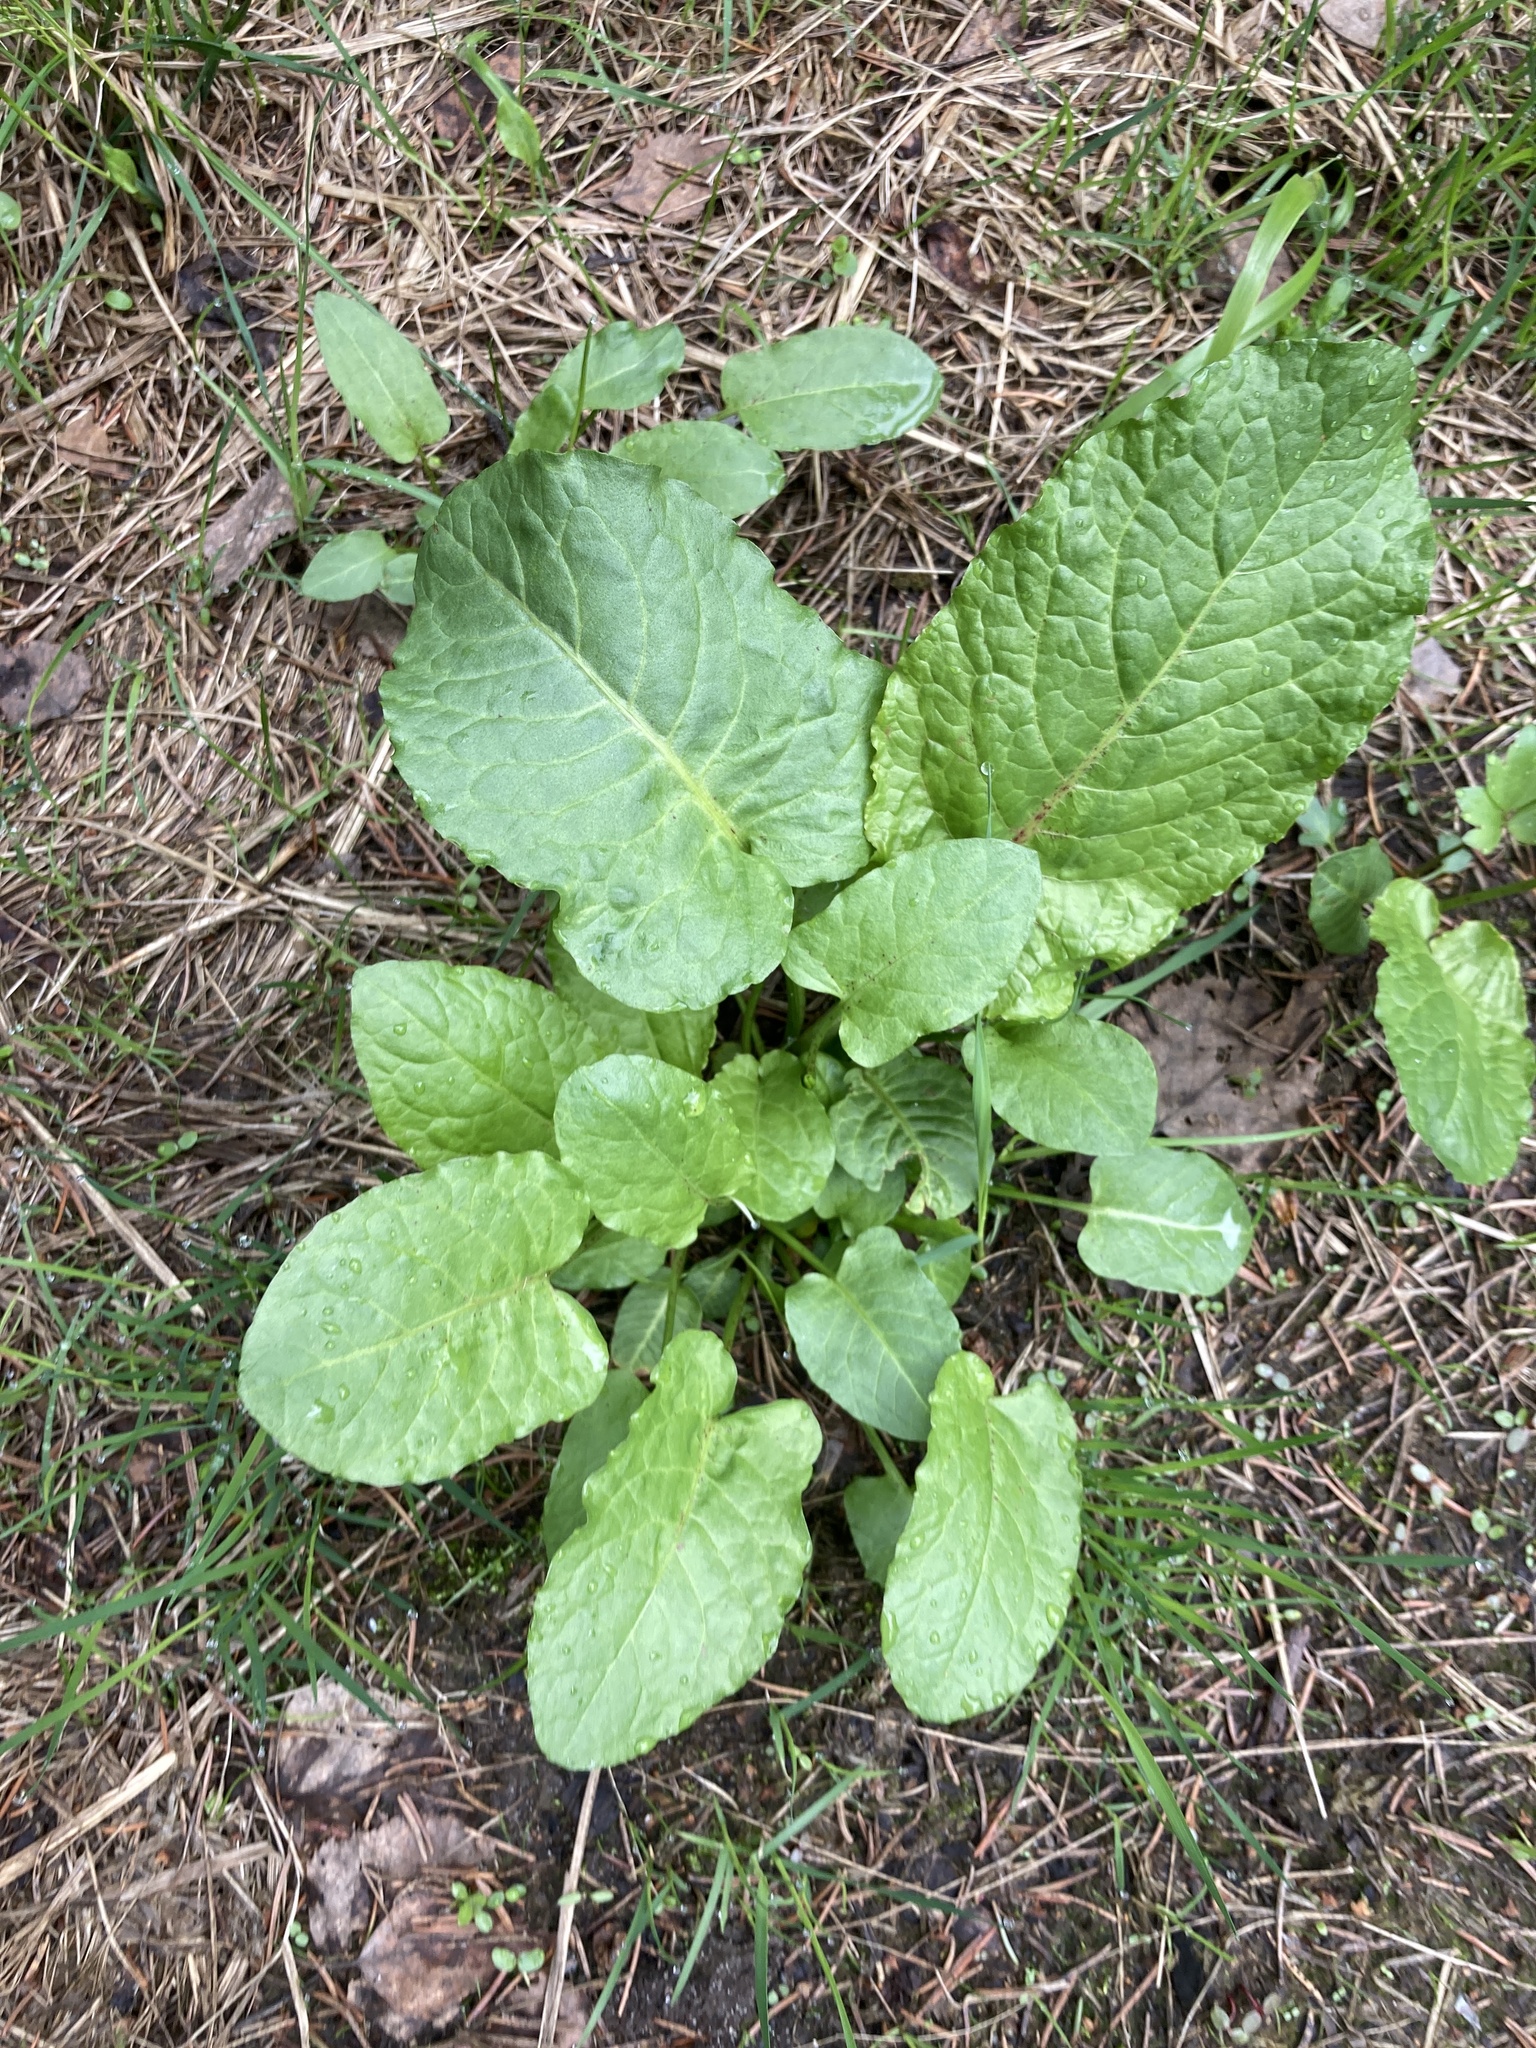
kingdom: Plantae
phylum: Tracheophyta
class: Magnoliopsida
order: Caryophyllales
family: Polygonaceae
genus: Rumex
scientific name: Rumex obtusifolius
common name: Bitter dock
